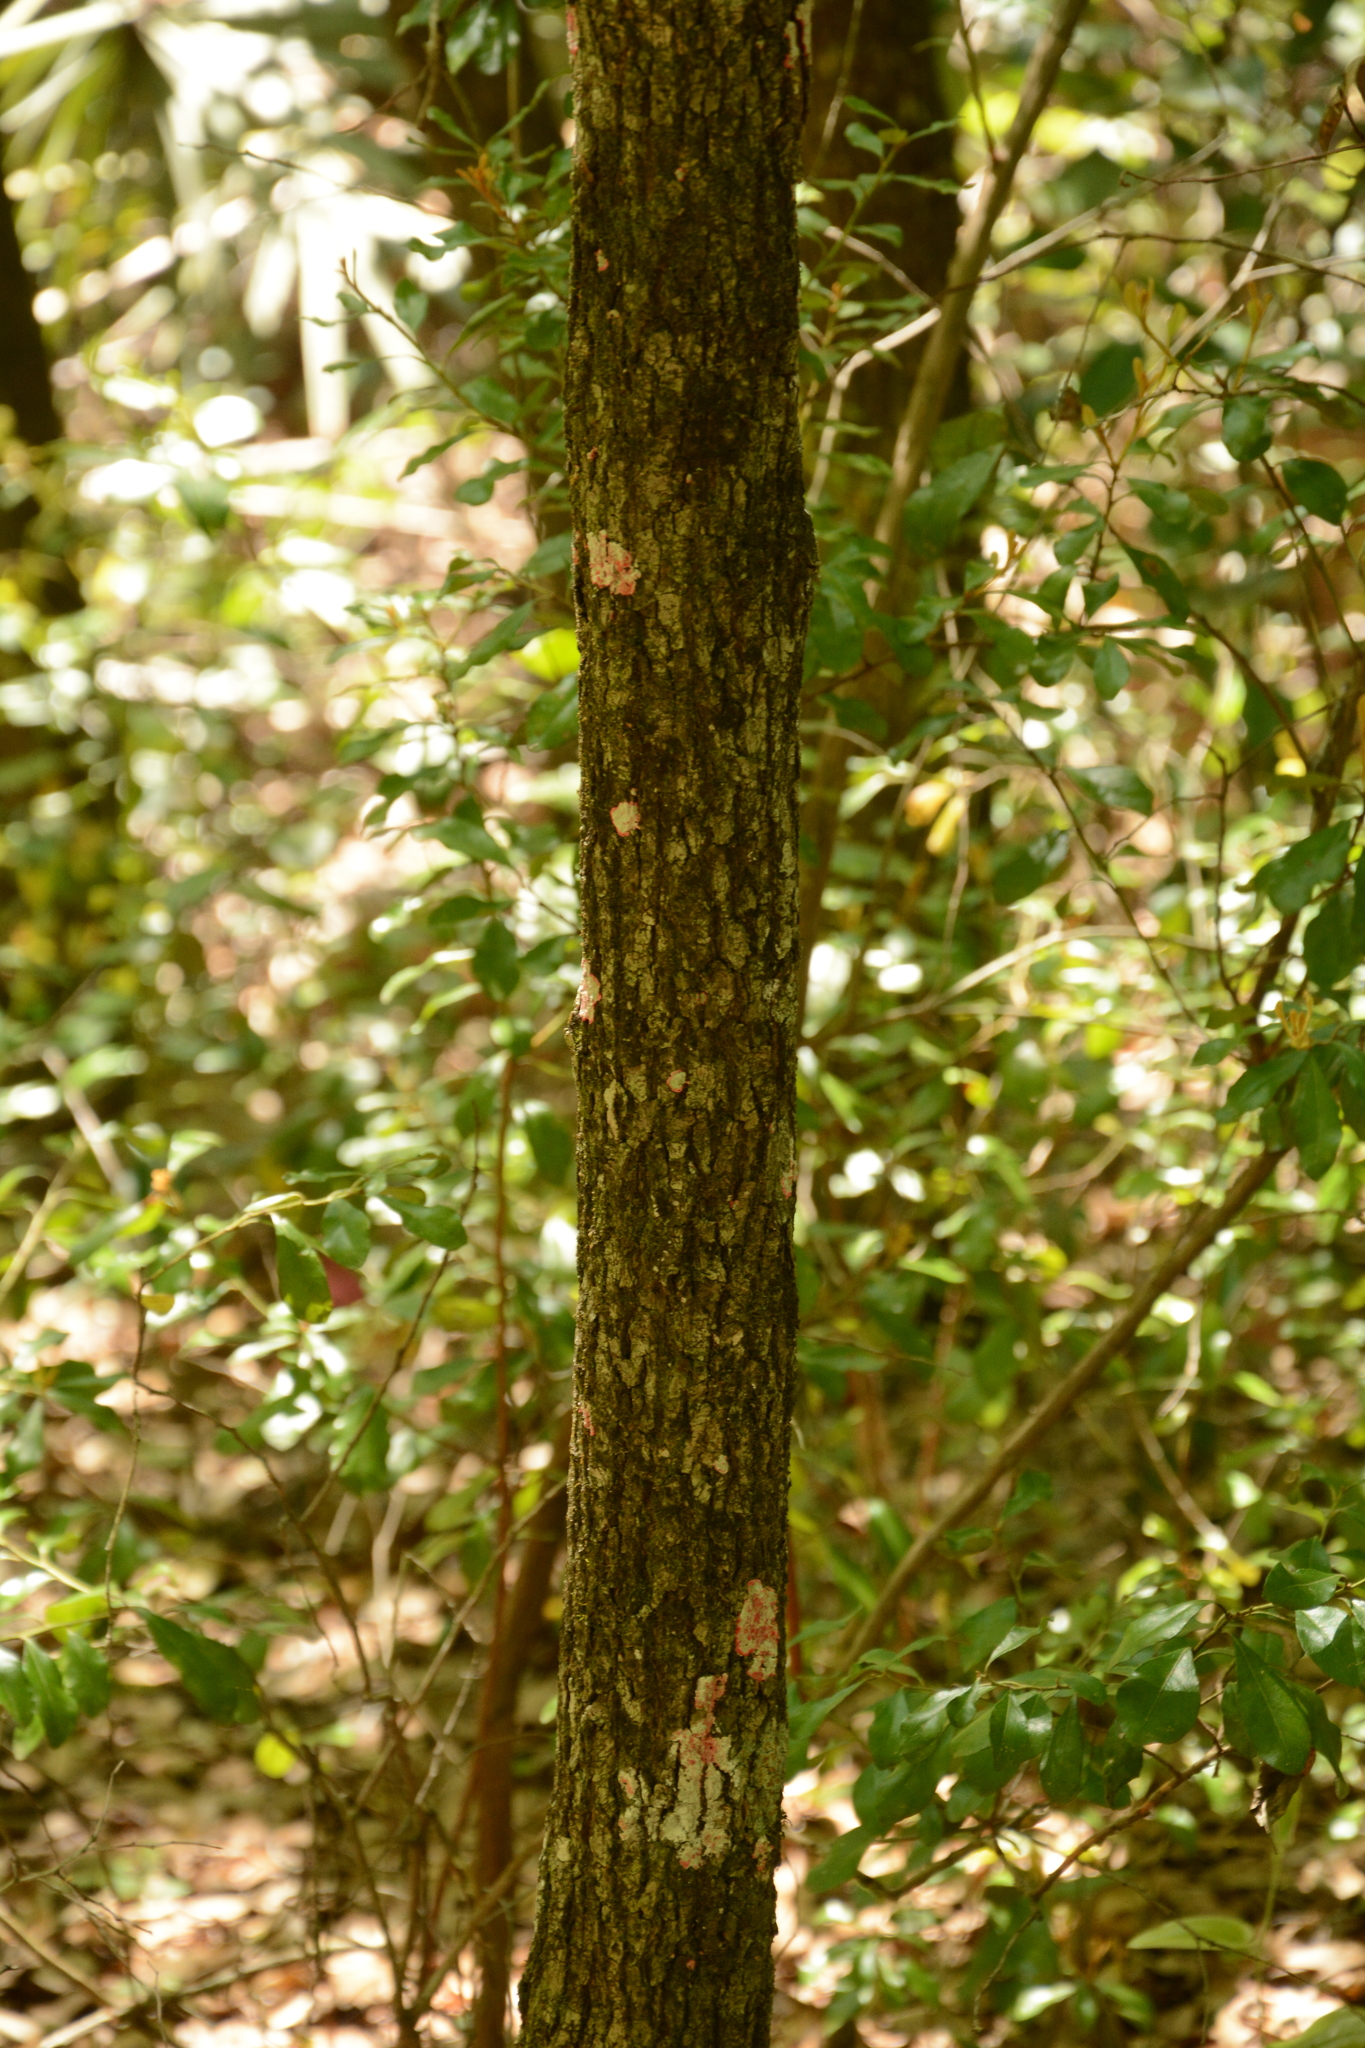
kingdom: Plantae
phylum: Tracheophyta
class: Magnoliopsida
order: Cornales
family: Nyssaceae
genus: Nyssa
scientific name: Nyssa sylvatica
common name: Black tupelo
